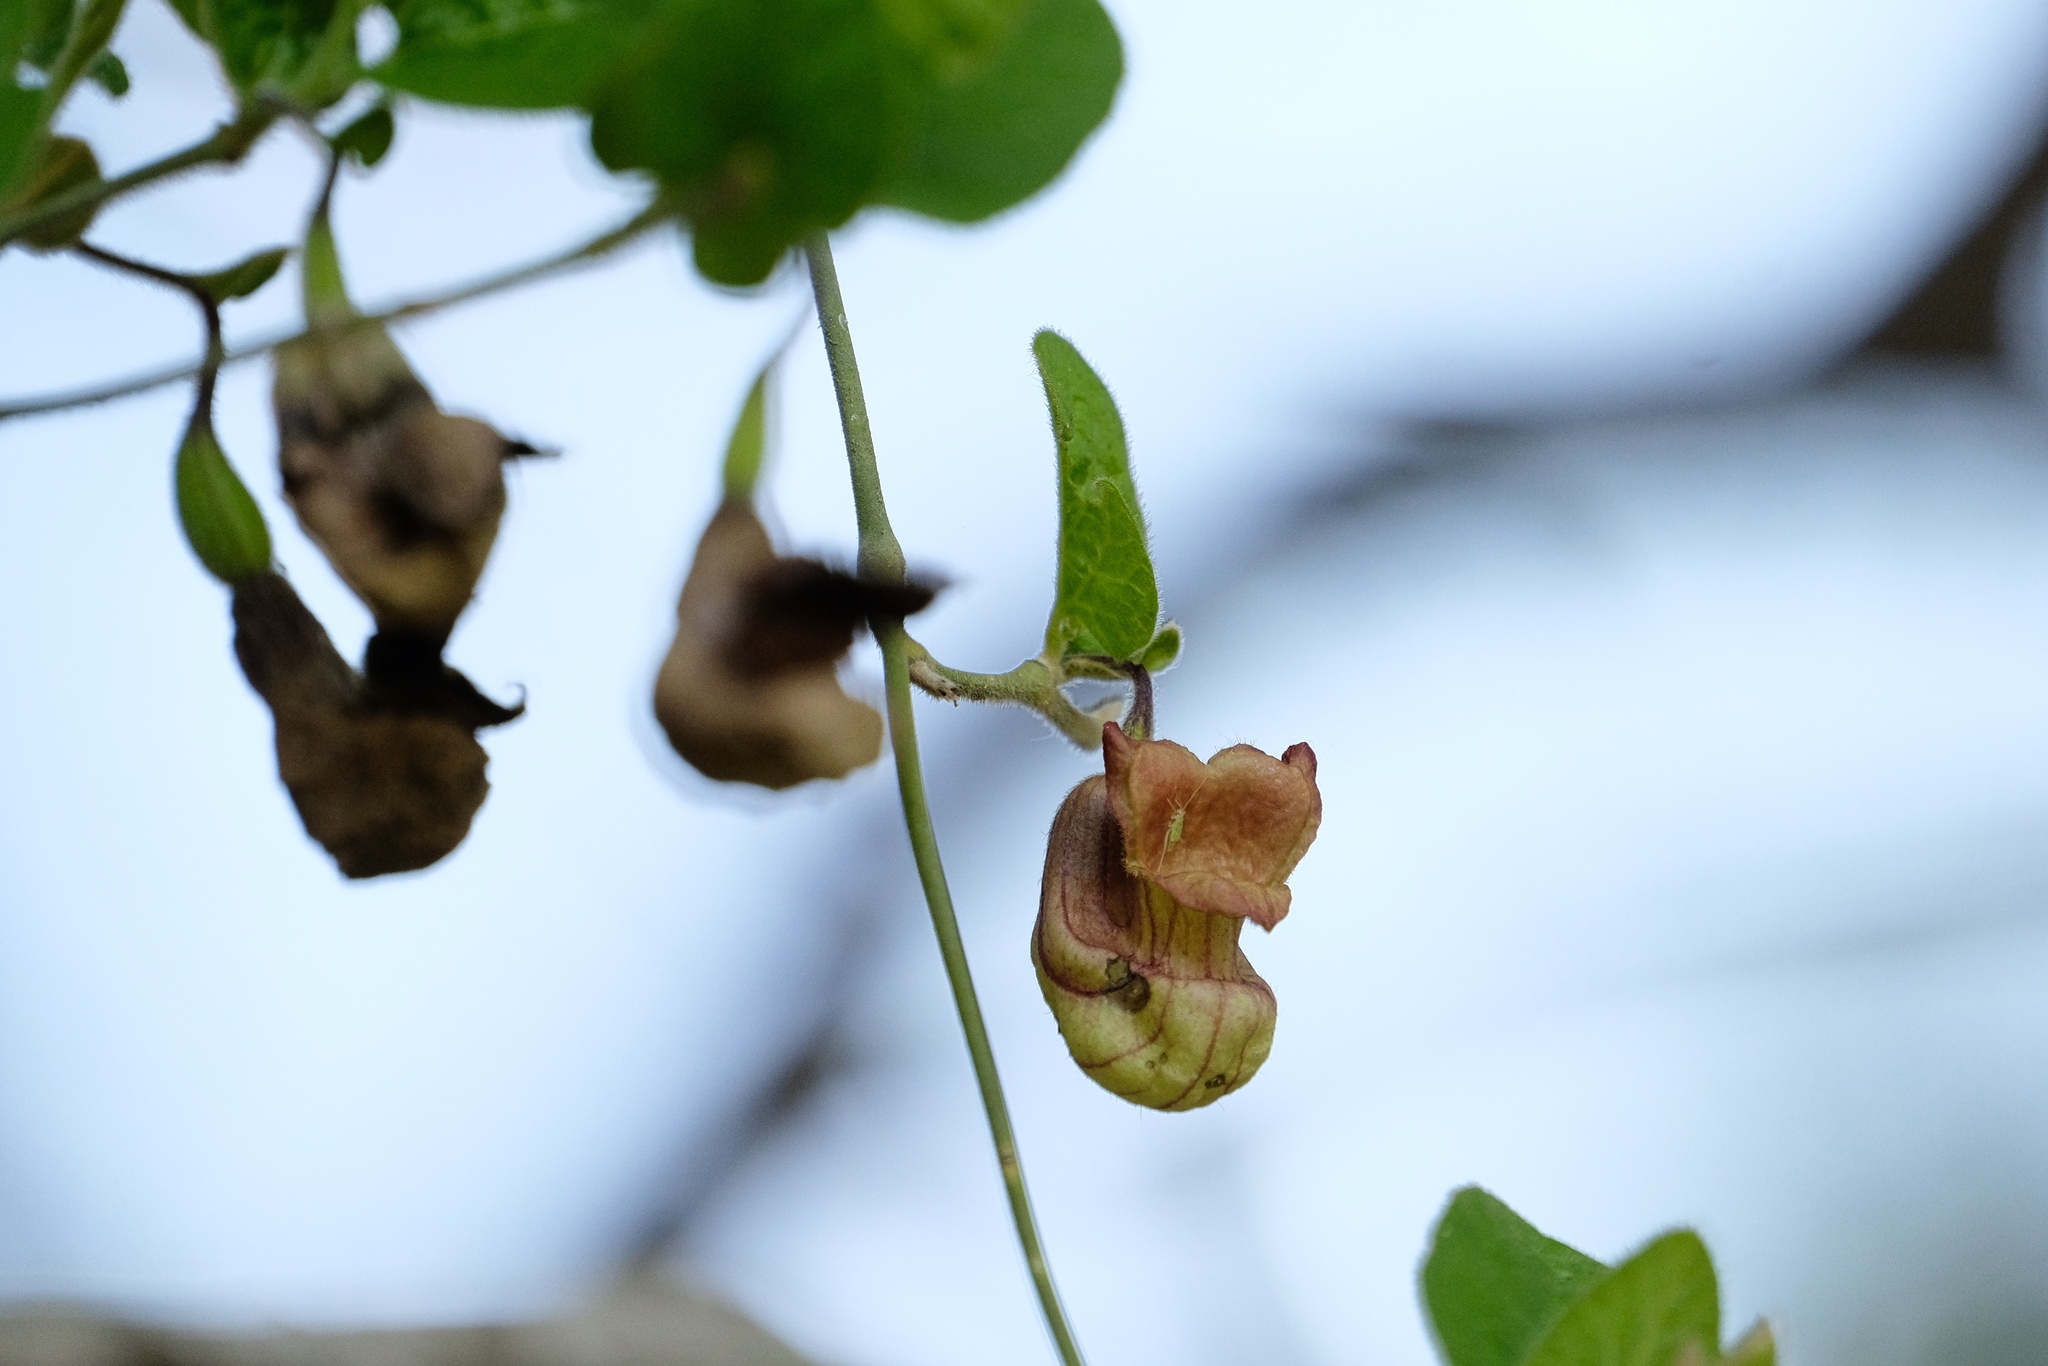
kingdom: Plantae
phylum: Tracheophyta
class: Magnoliopsida
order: Piperales
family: Aristolochiaceae
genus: Isotrema
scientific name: Isotrema californicum
